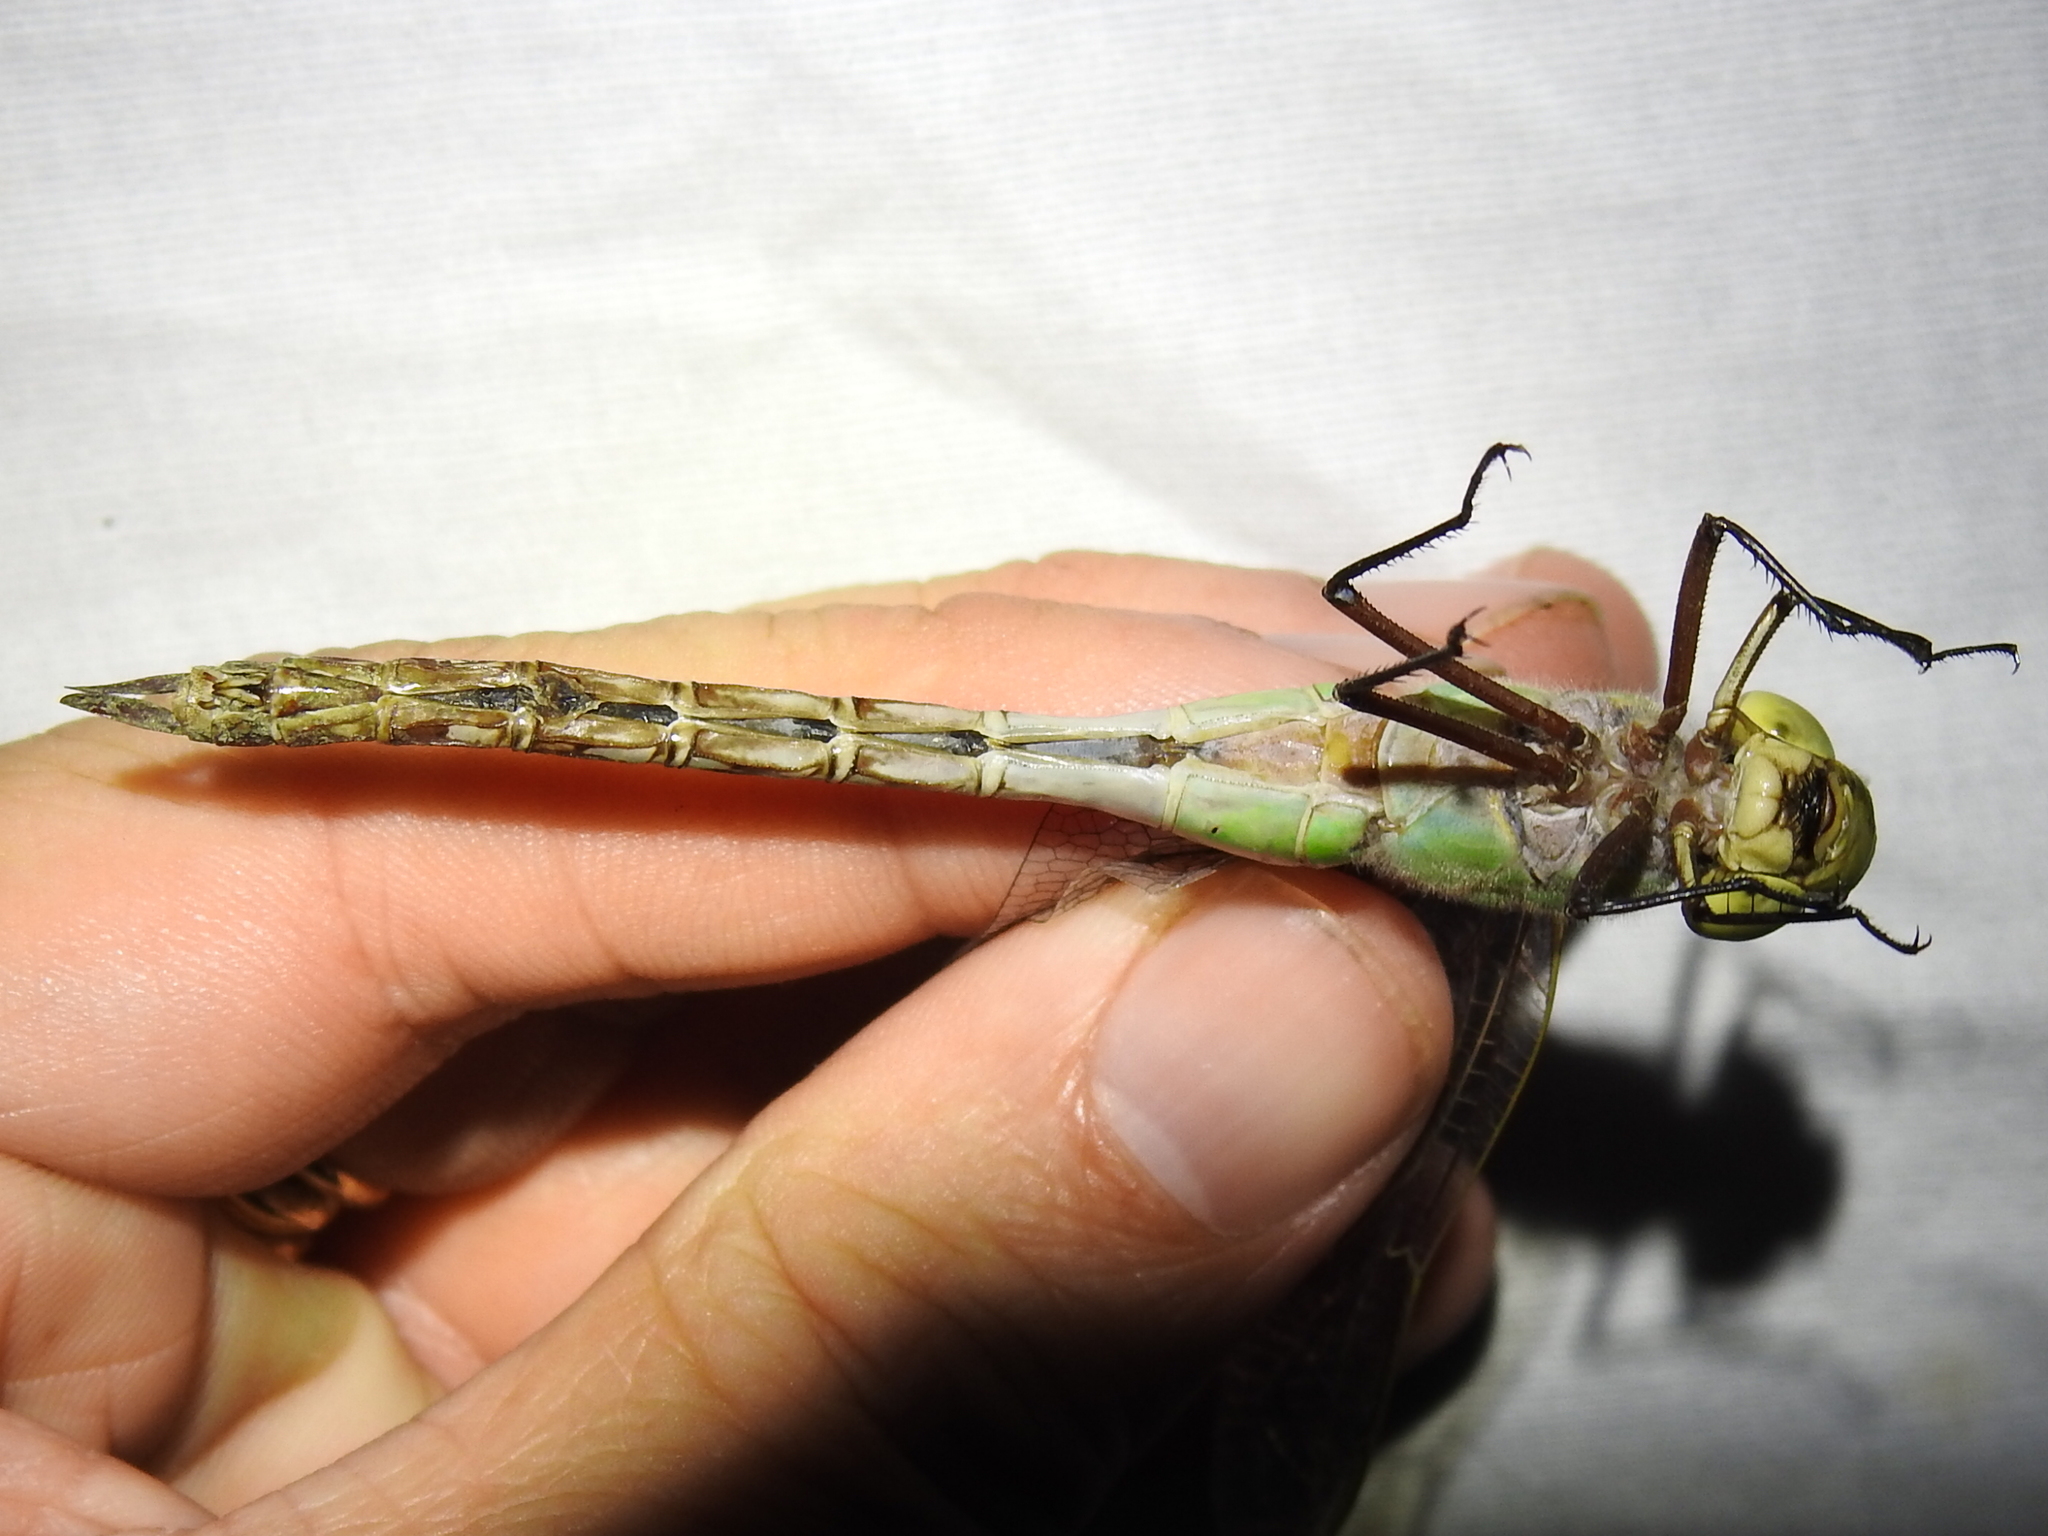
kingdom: Animalia
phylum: Arthropoda
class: Insecta
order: Odonata
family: Aeshnidae
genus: Anax
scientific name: Anax junius
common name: Common green darner
